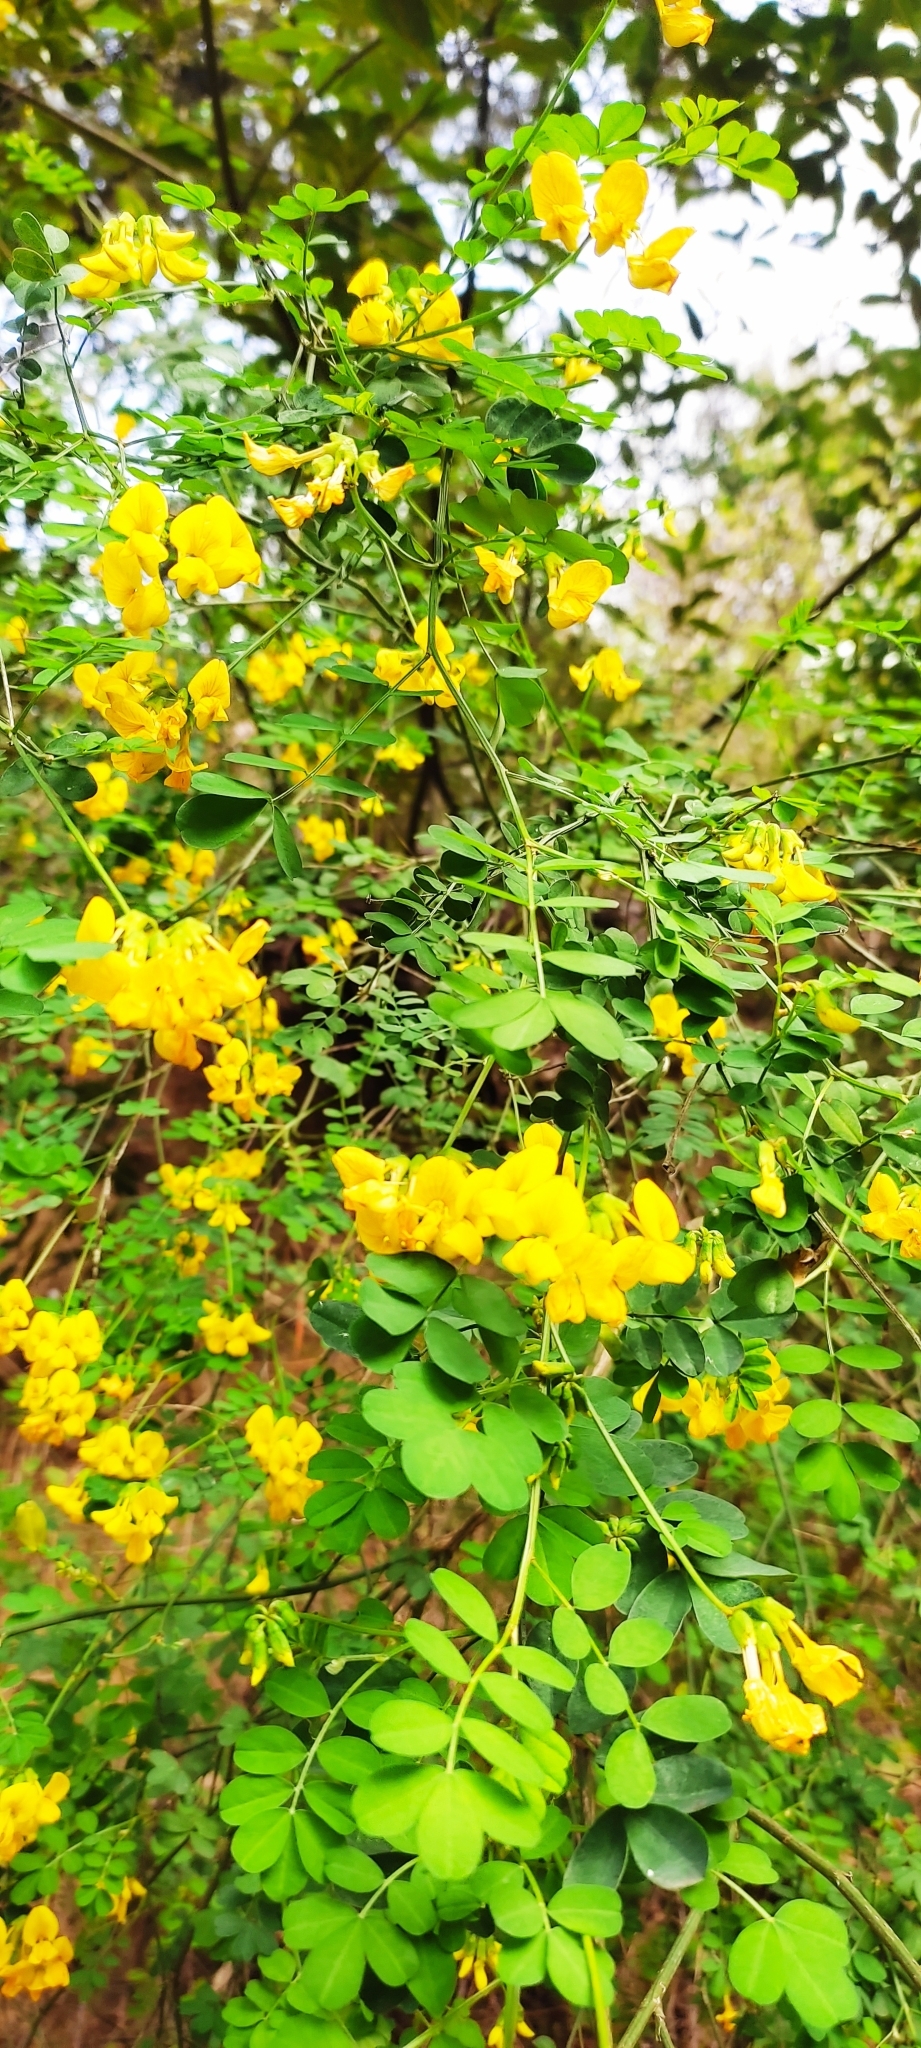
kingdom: Plantae
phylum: Tracheophyta
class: Magnoliopsida
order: Fabales
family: Fabaceae
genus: Hippocrepis
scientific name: Hippocrepis emerus
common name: Scorpion senna
